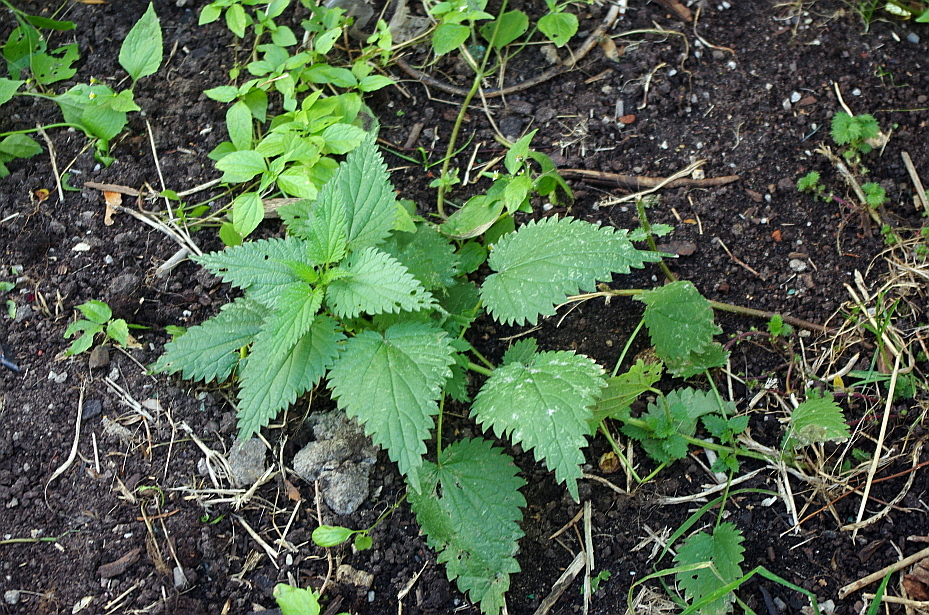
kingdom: Plantae
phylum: Tracheophyta
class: Magnoliopsida
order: Rosales
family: Urticaceae
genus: Urtica
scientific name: Urtica dioica
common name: Common nettle
